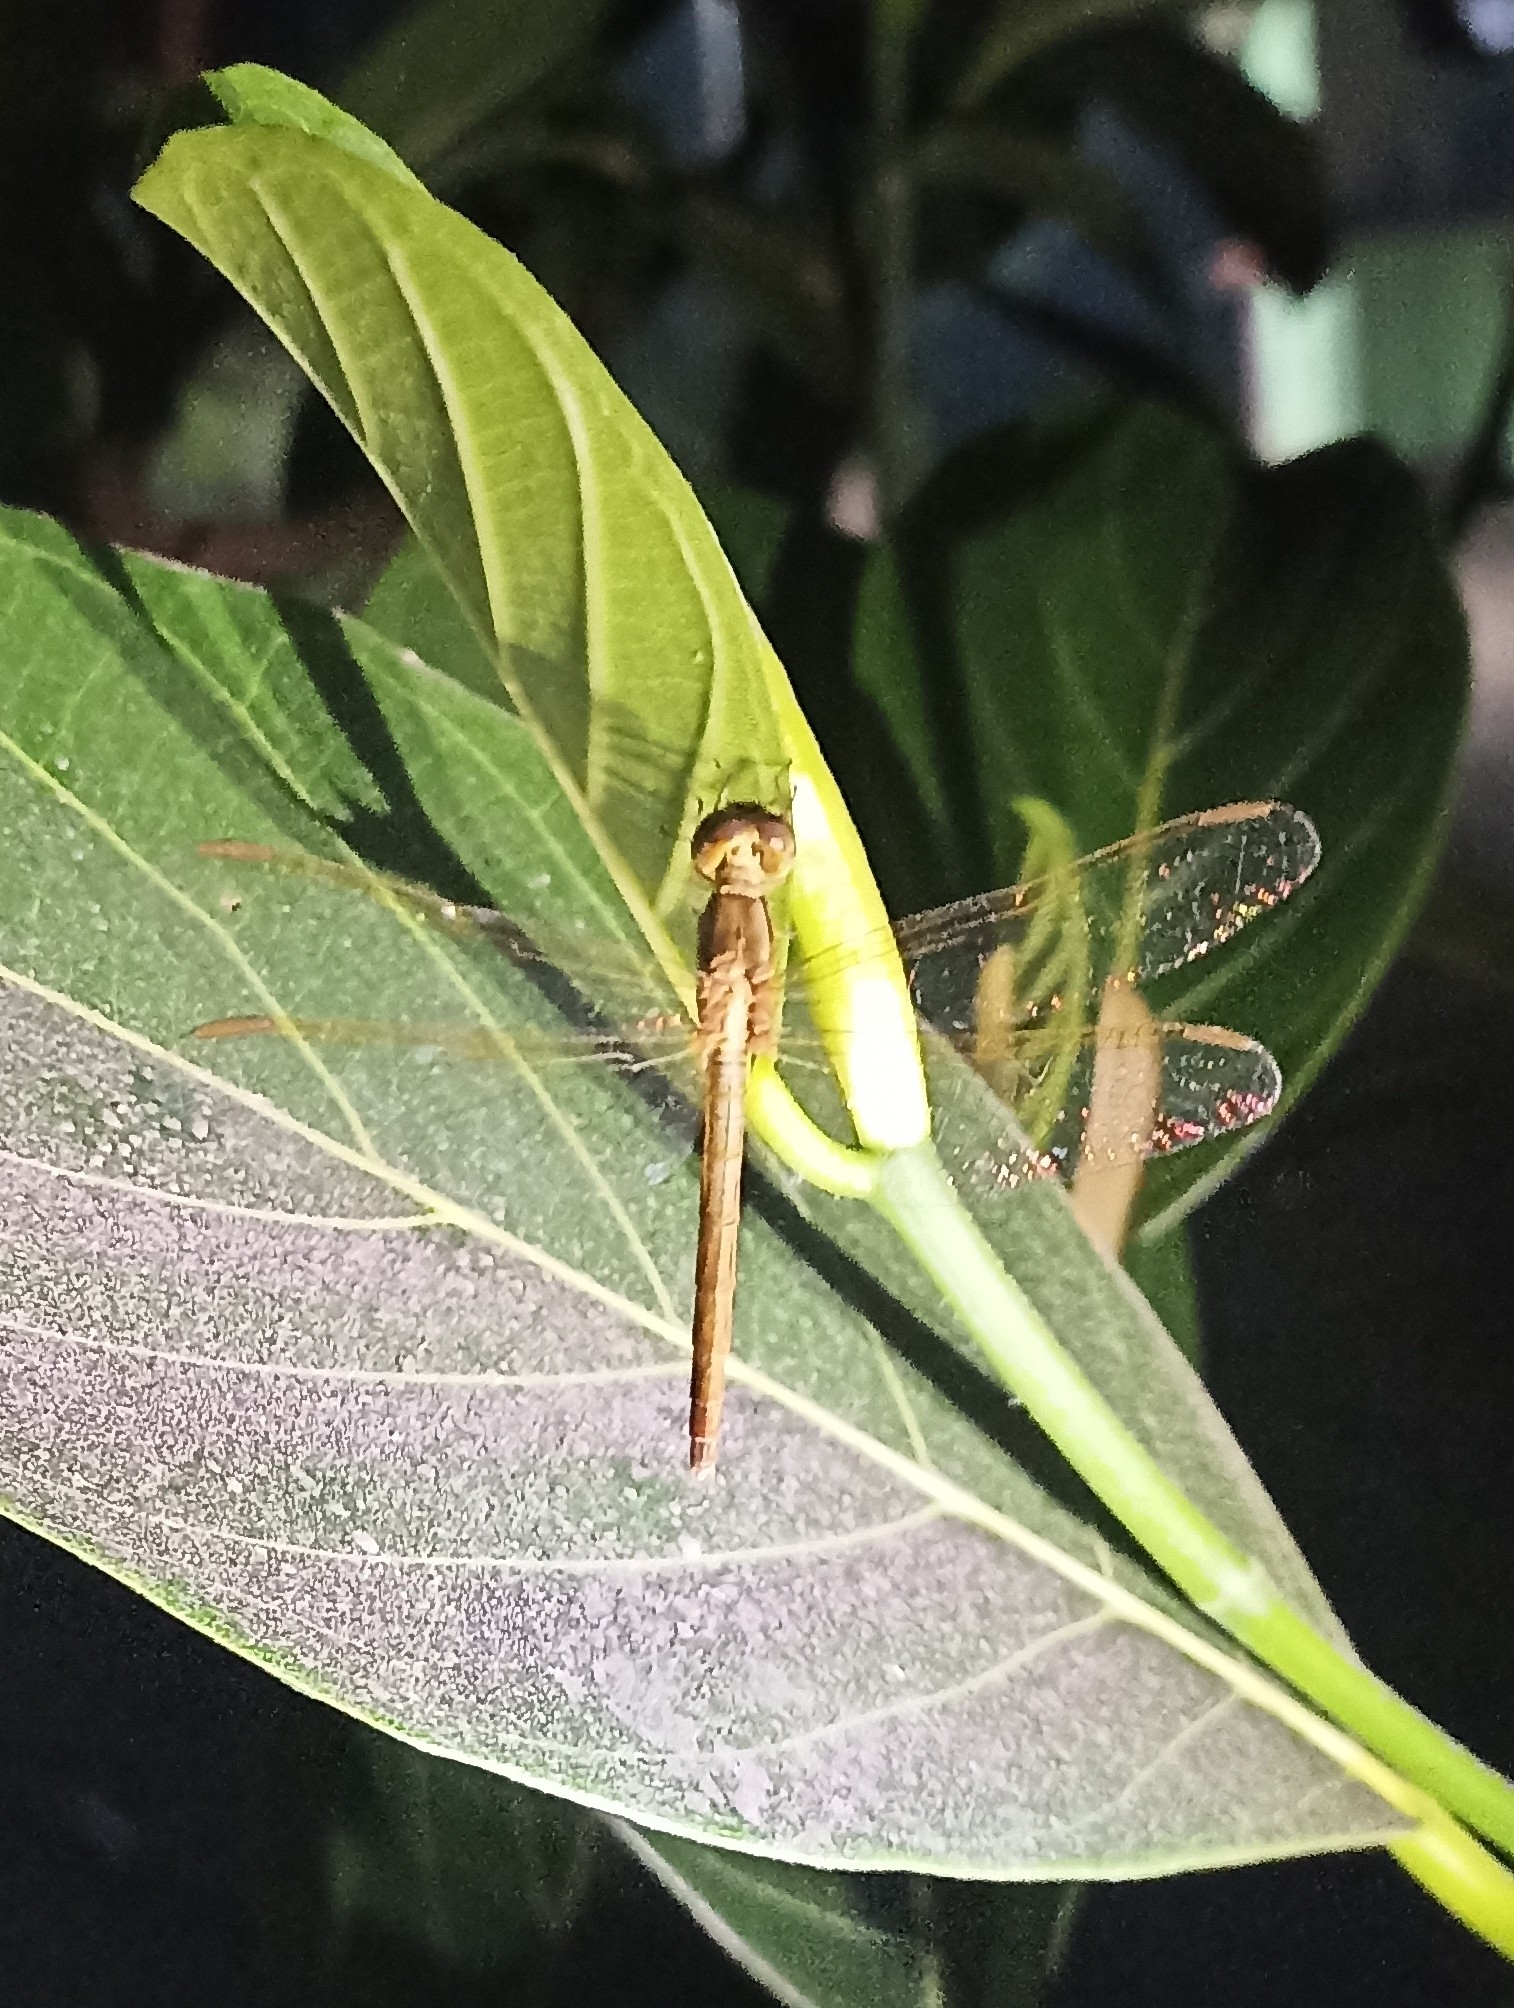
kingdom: Animalia
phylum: Arthropoda
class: Insecta
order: Odonata
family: Libellulidae
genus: Tholymis
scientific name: Tholymis tillarga
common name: Coral-tailed cloud wing
